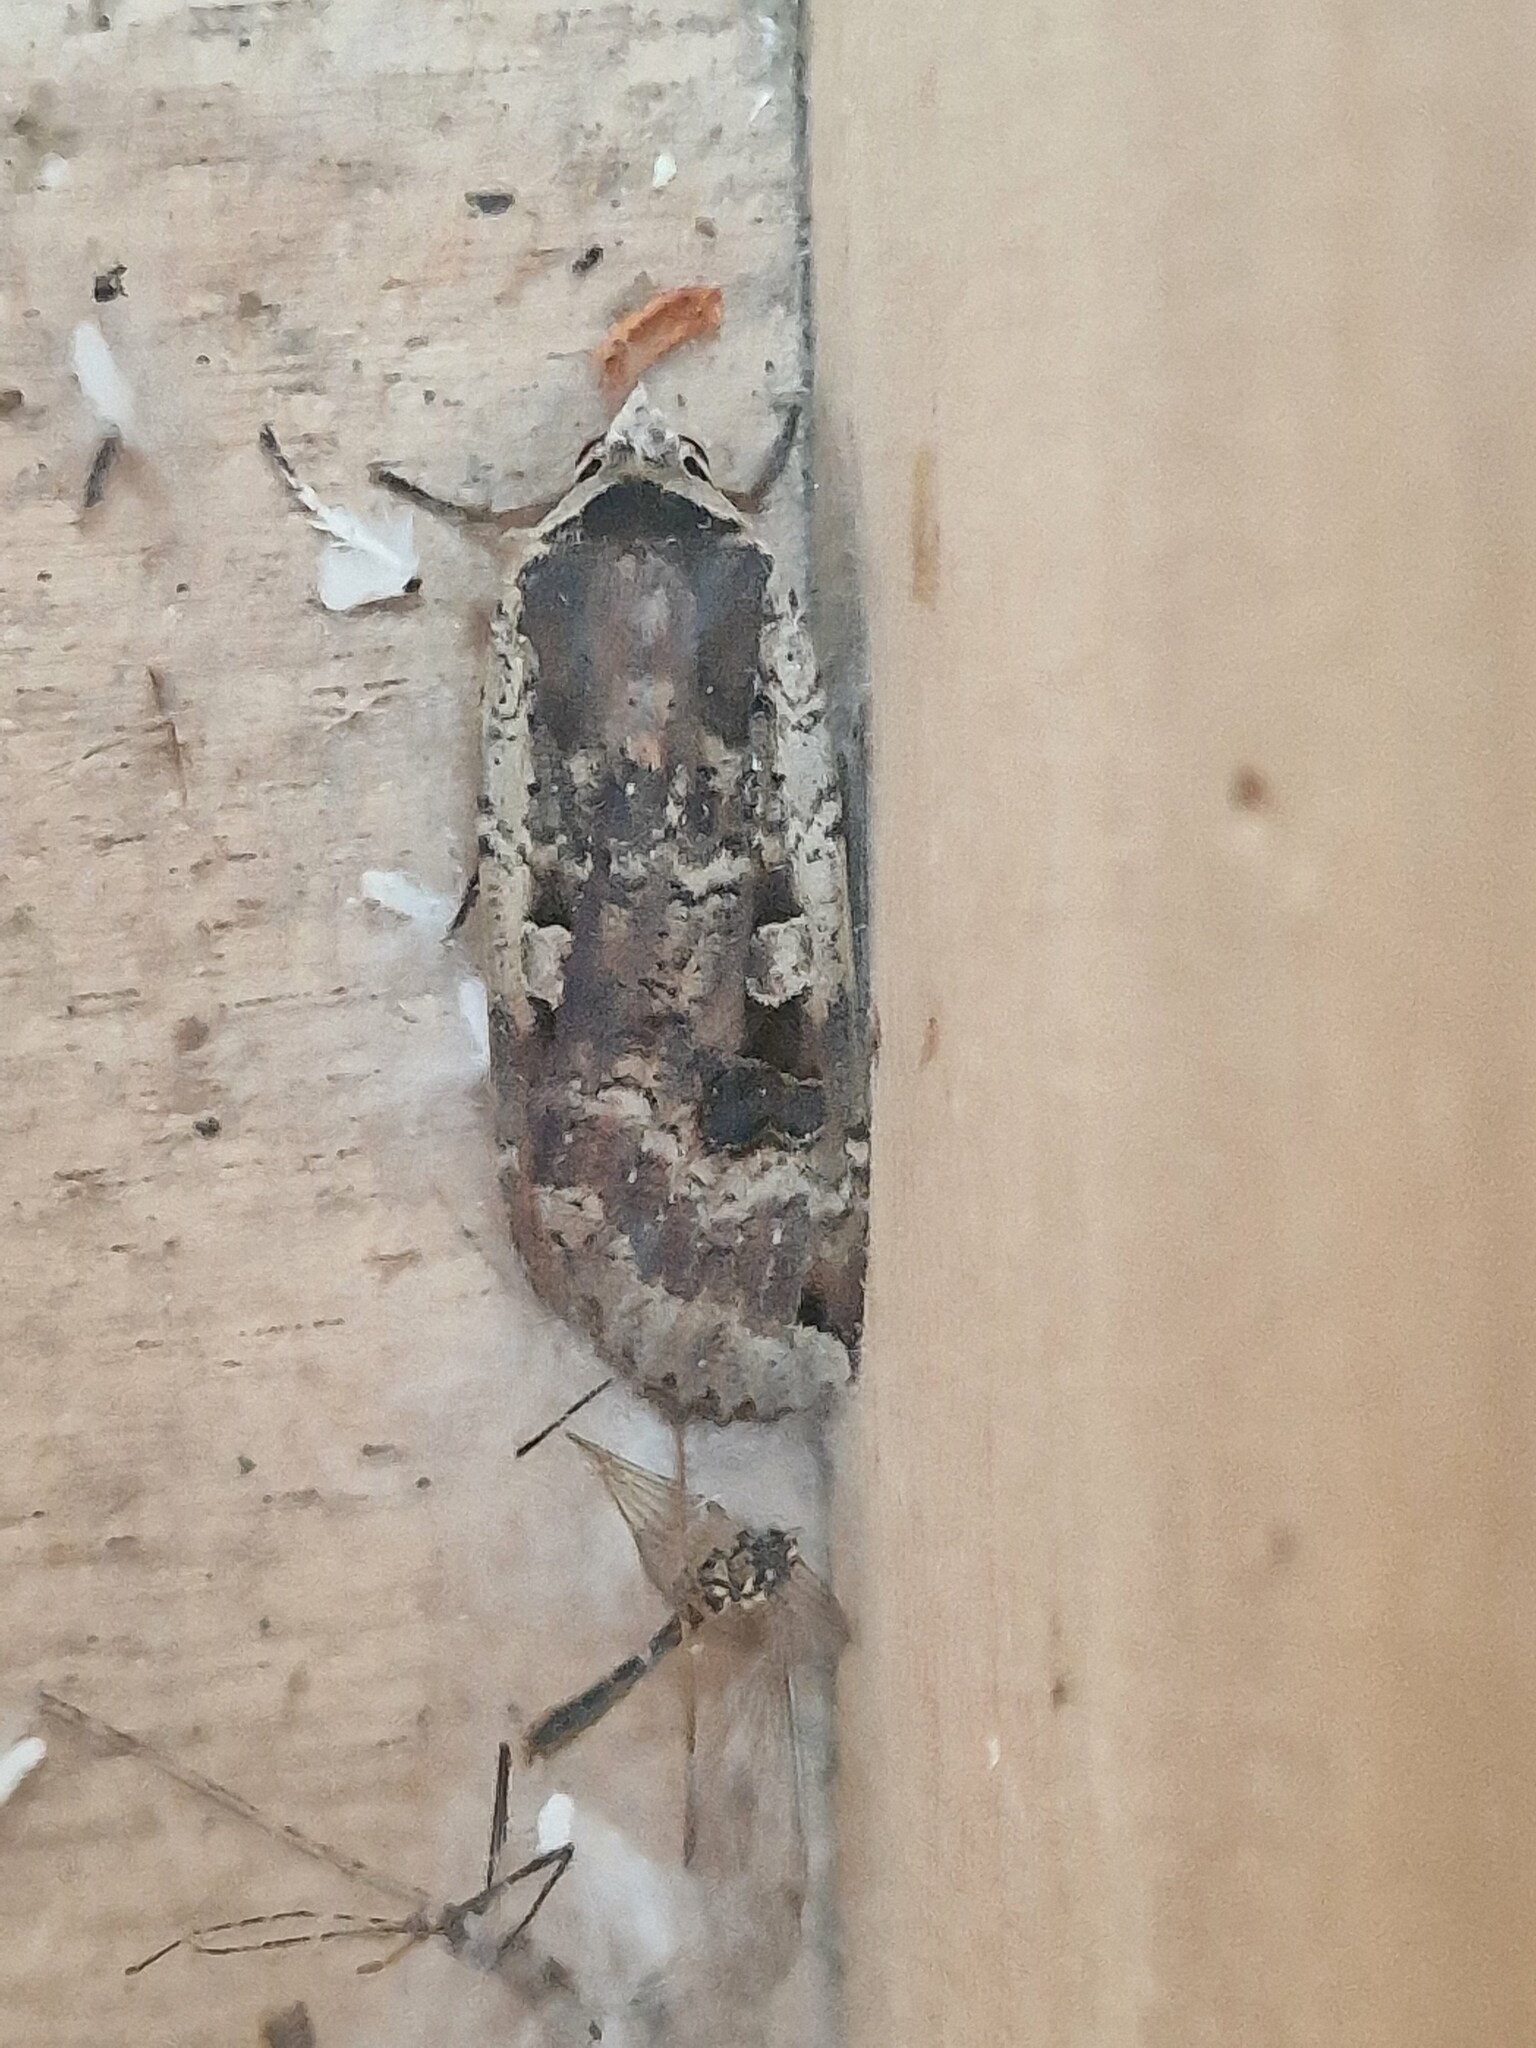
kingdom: Animalia
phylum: Arthropoda
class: Insecta
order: Lepidoptera
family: Noctuidae
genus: Noctua
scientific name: Noctua pronuba
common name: Large yellow underwing
